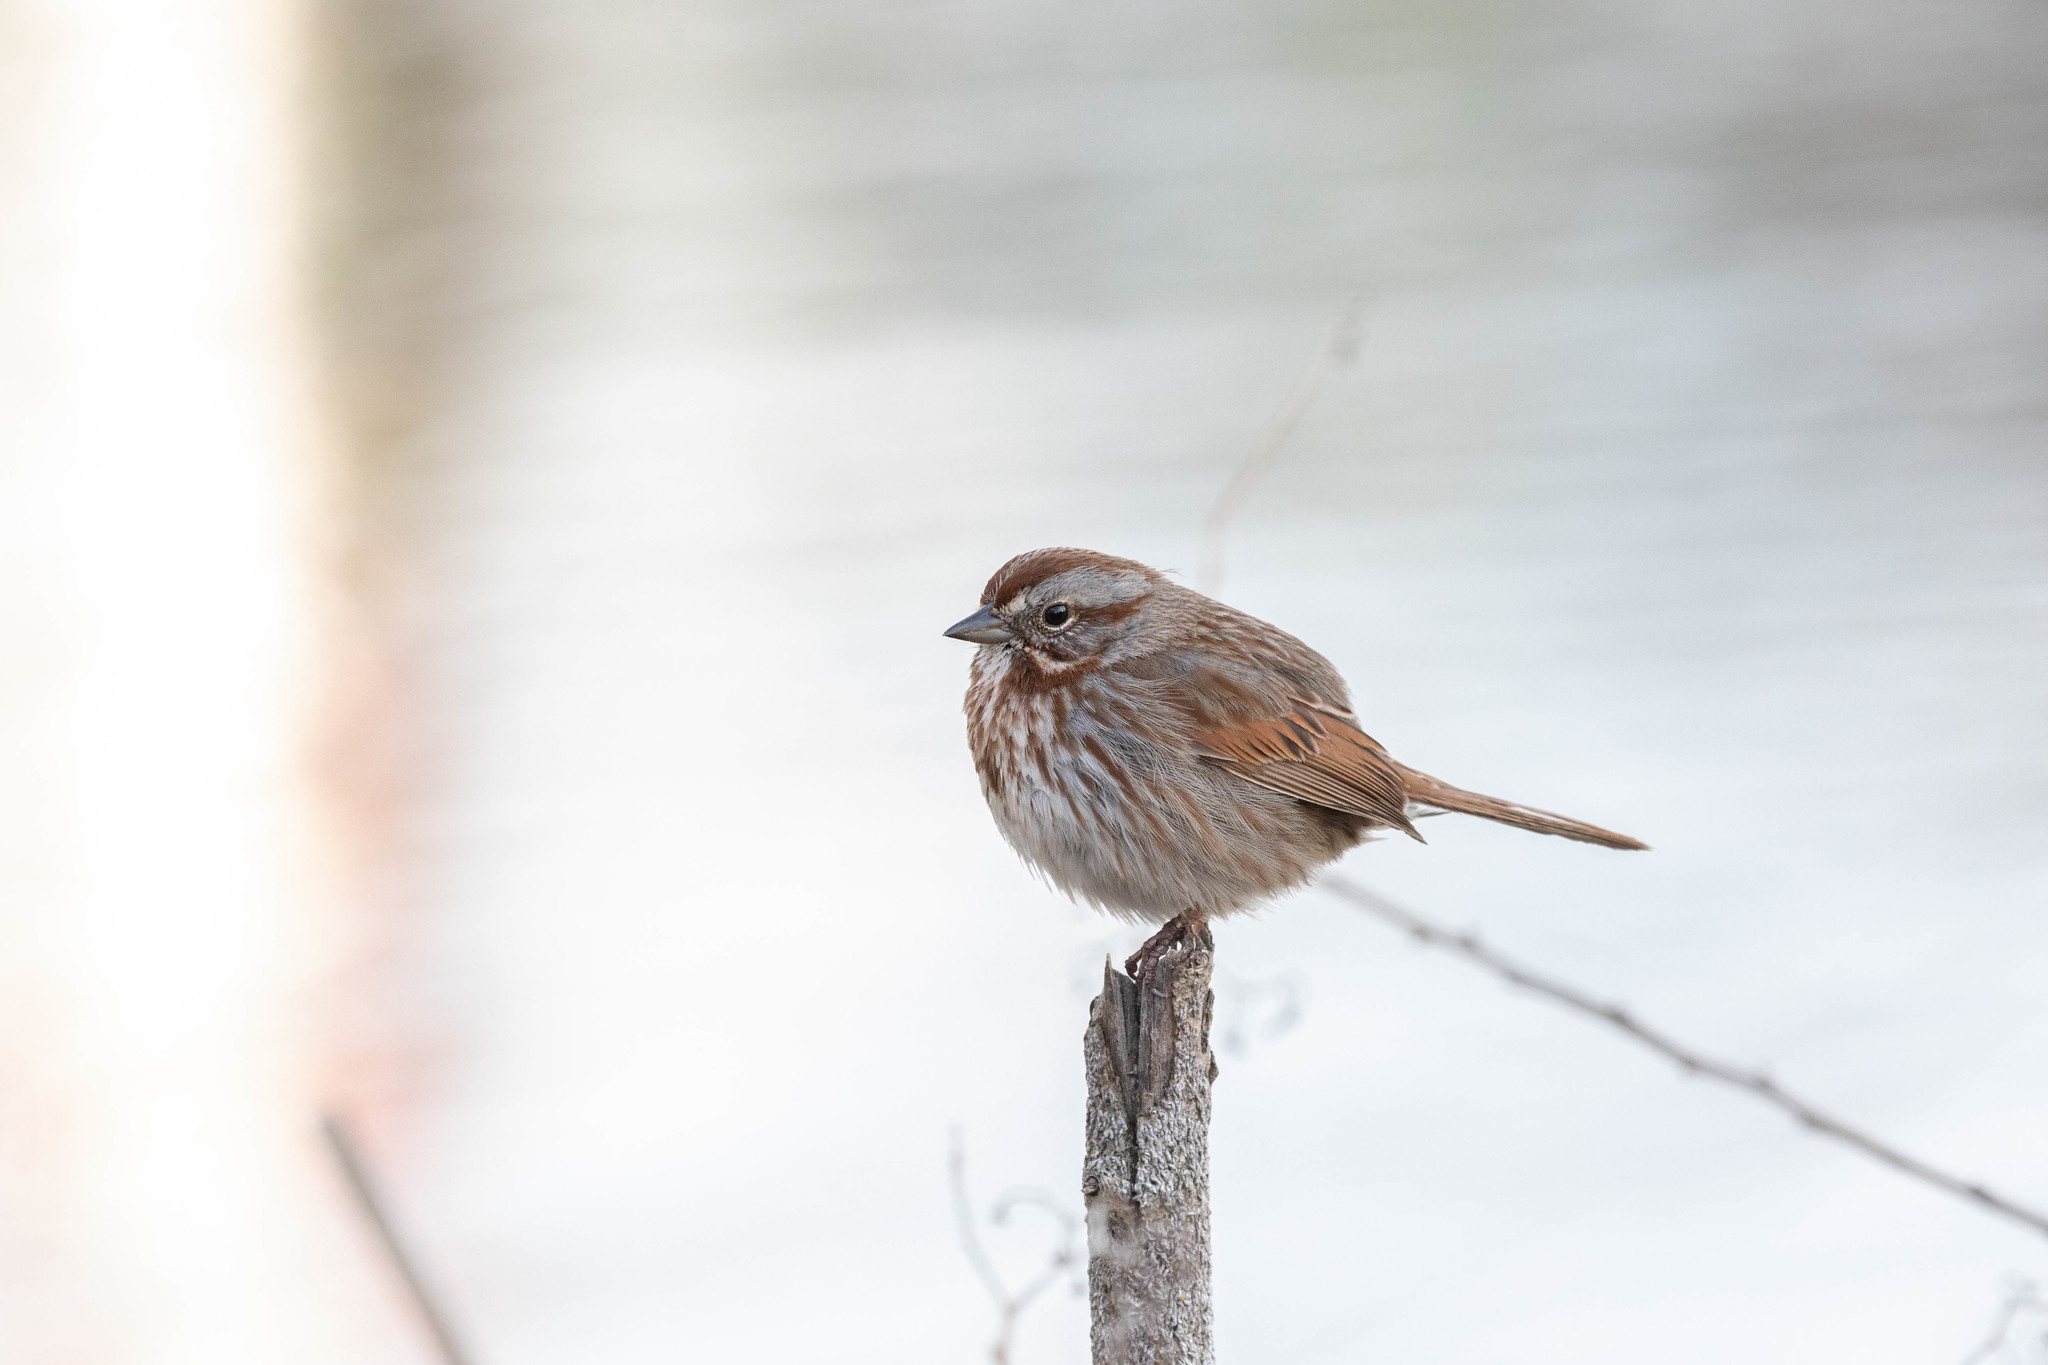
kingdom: Animalia
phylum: Chordata
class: Aves
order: Passeriformes
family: Passerellidae
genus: Melospiza
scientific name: Melospiza melodia
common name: Song sparrow
